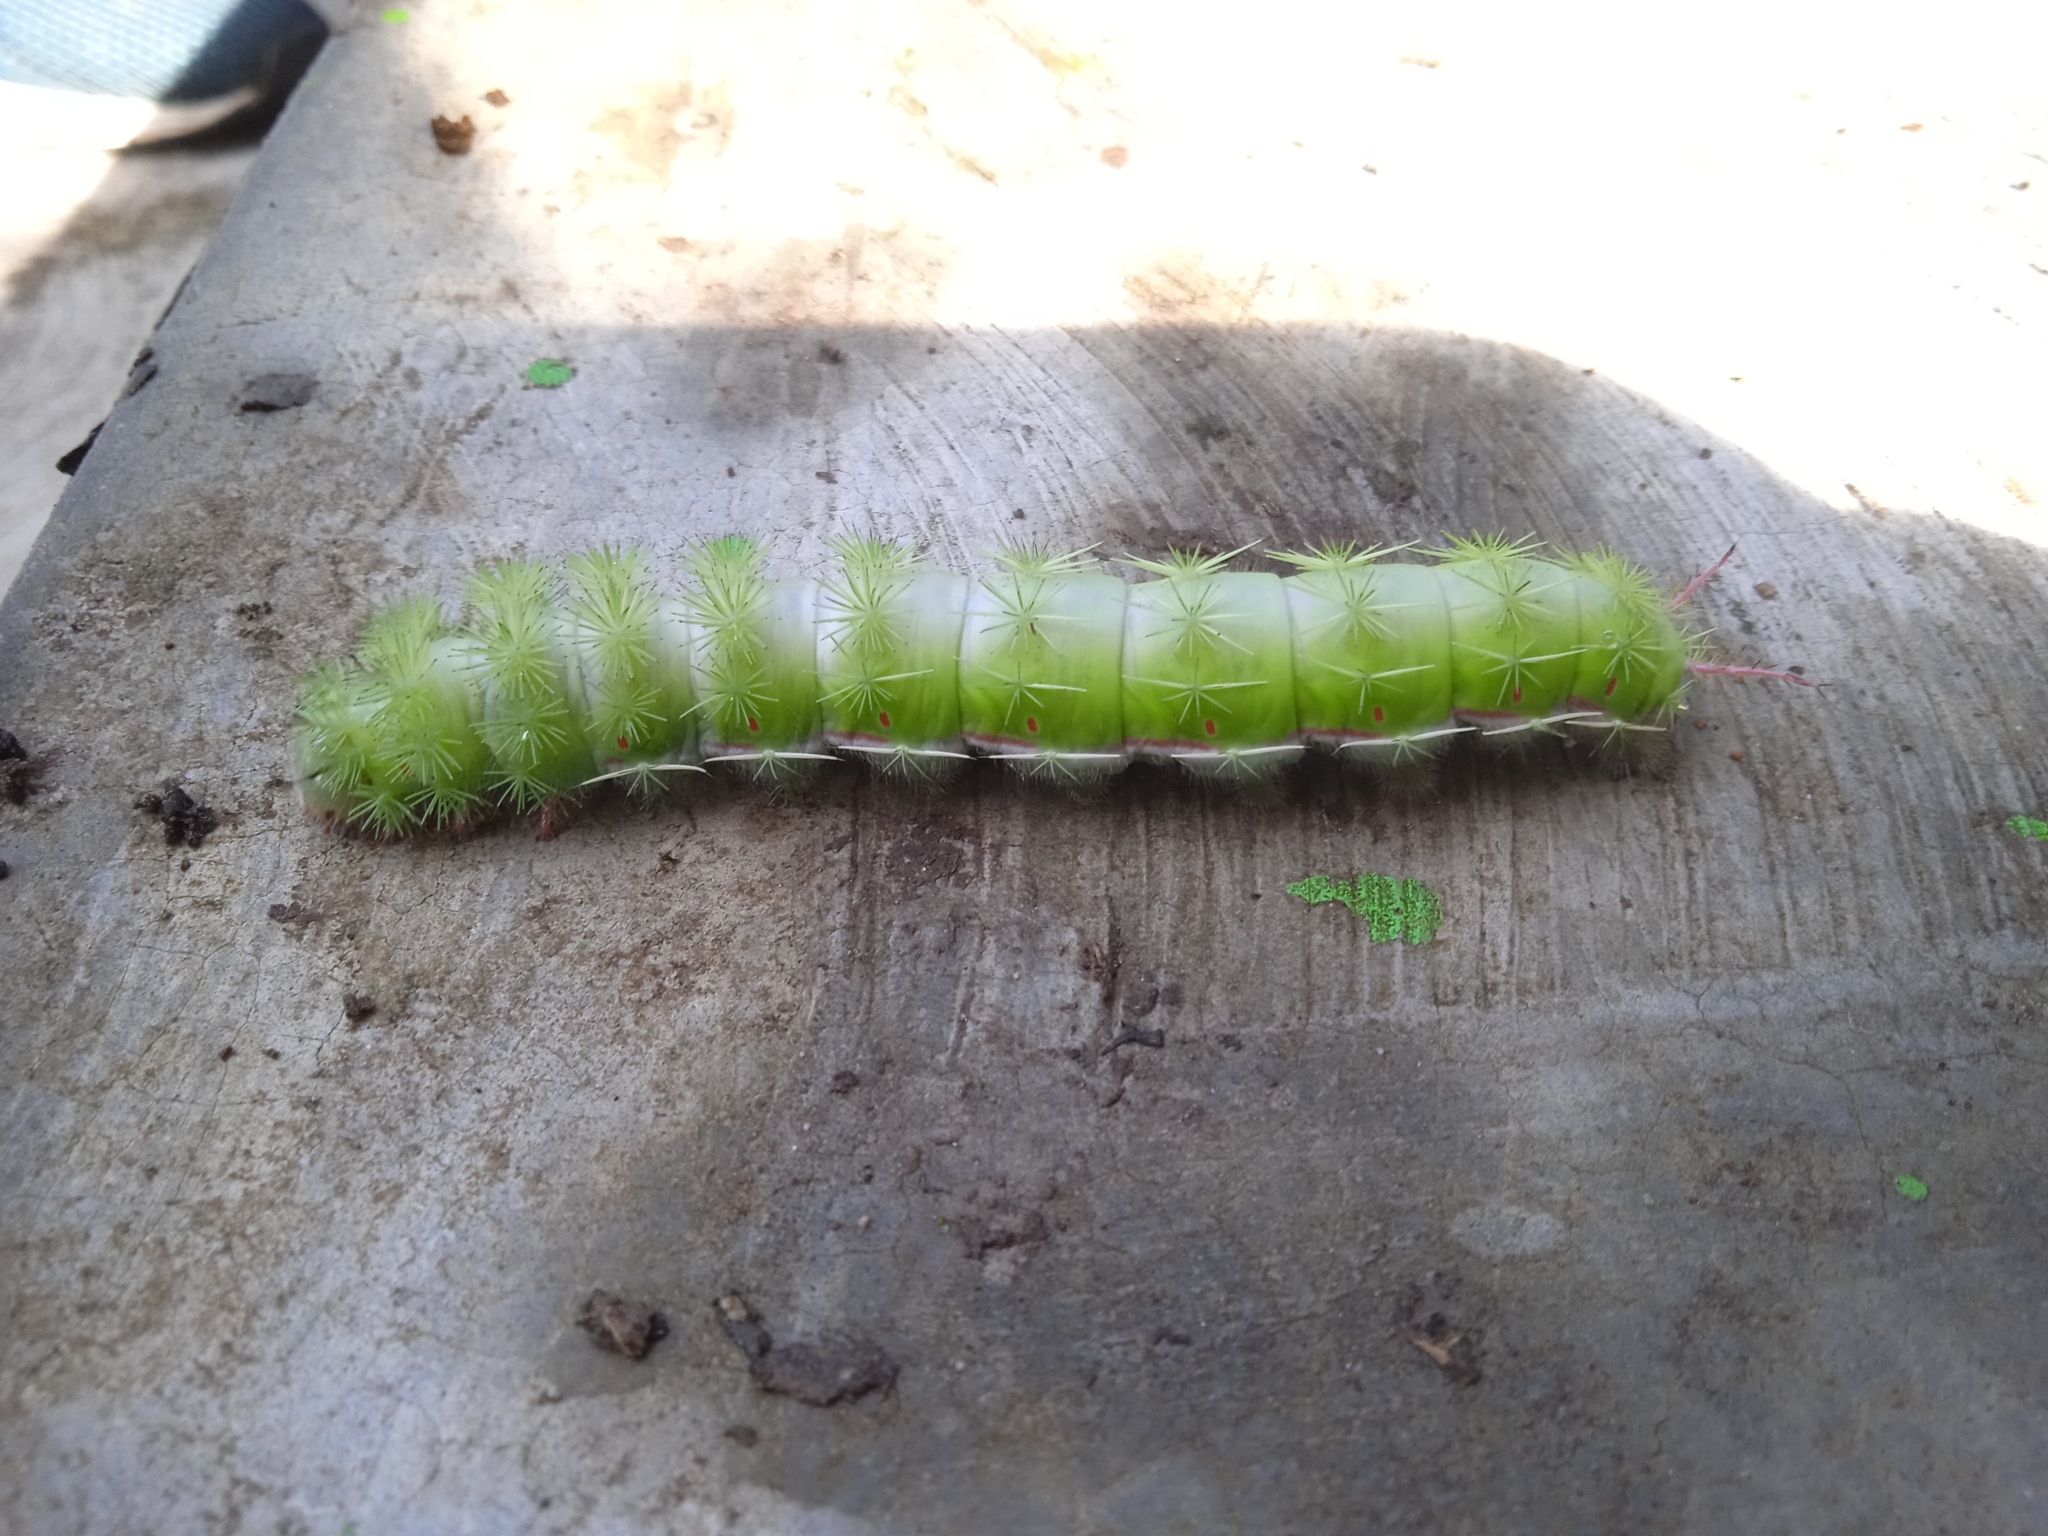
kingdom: Animalia
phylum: Arthropoda
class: Insecta
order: Lepidoptera
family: Saturniidae
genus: Automeris
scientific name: Automeris io
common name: Io moth
